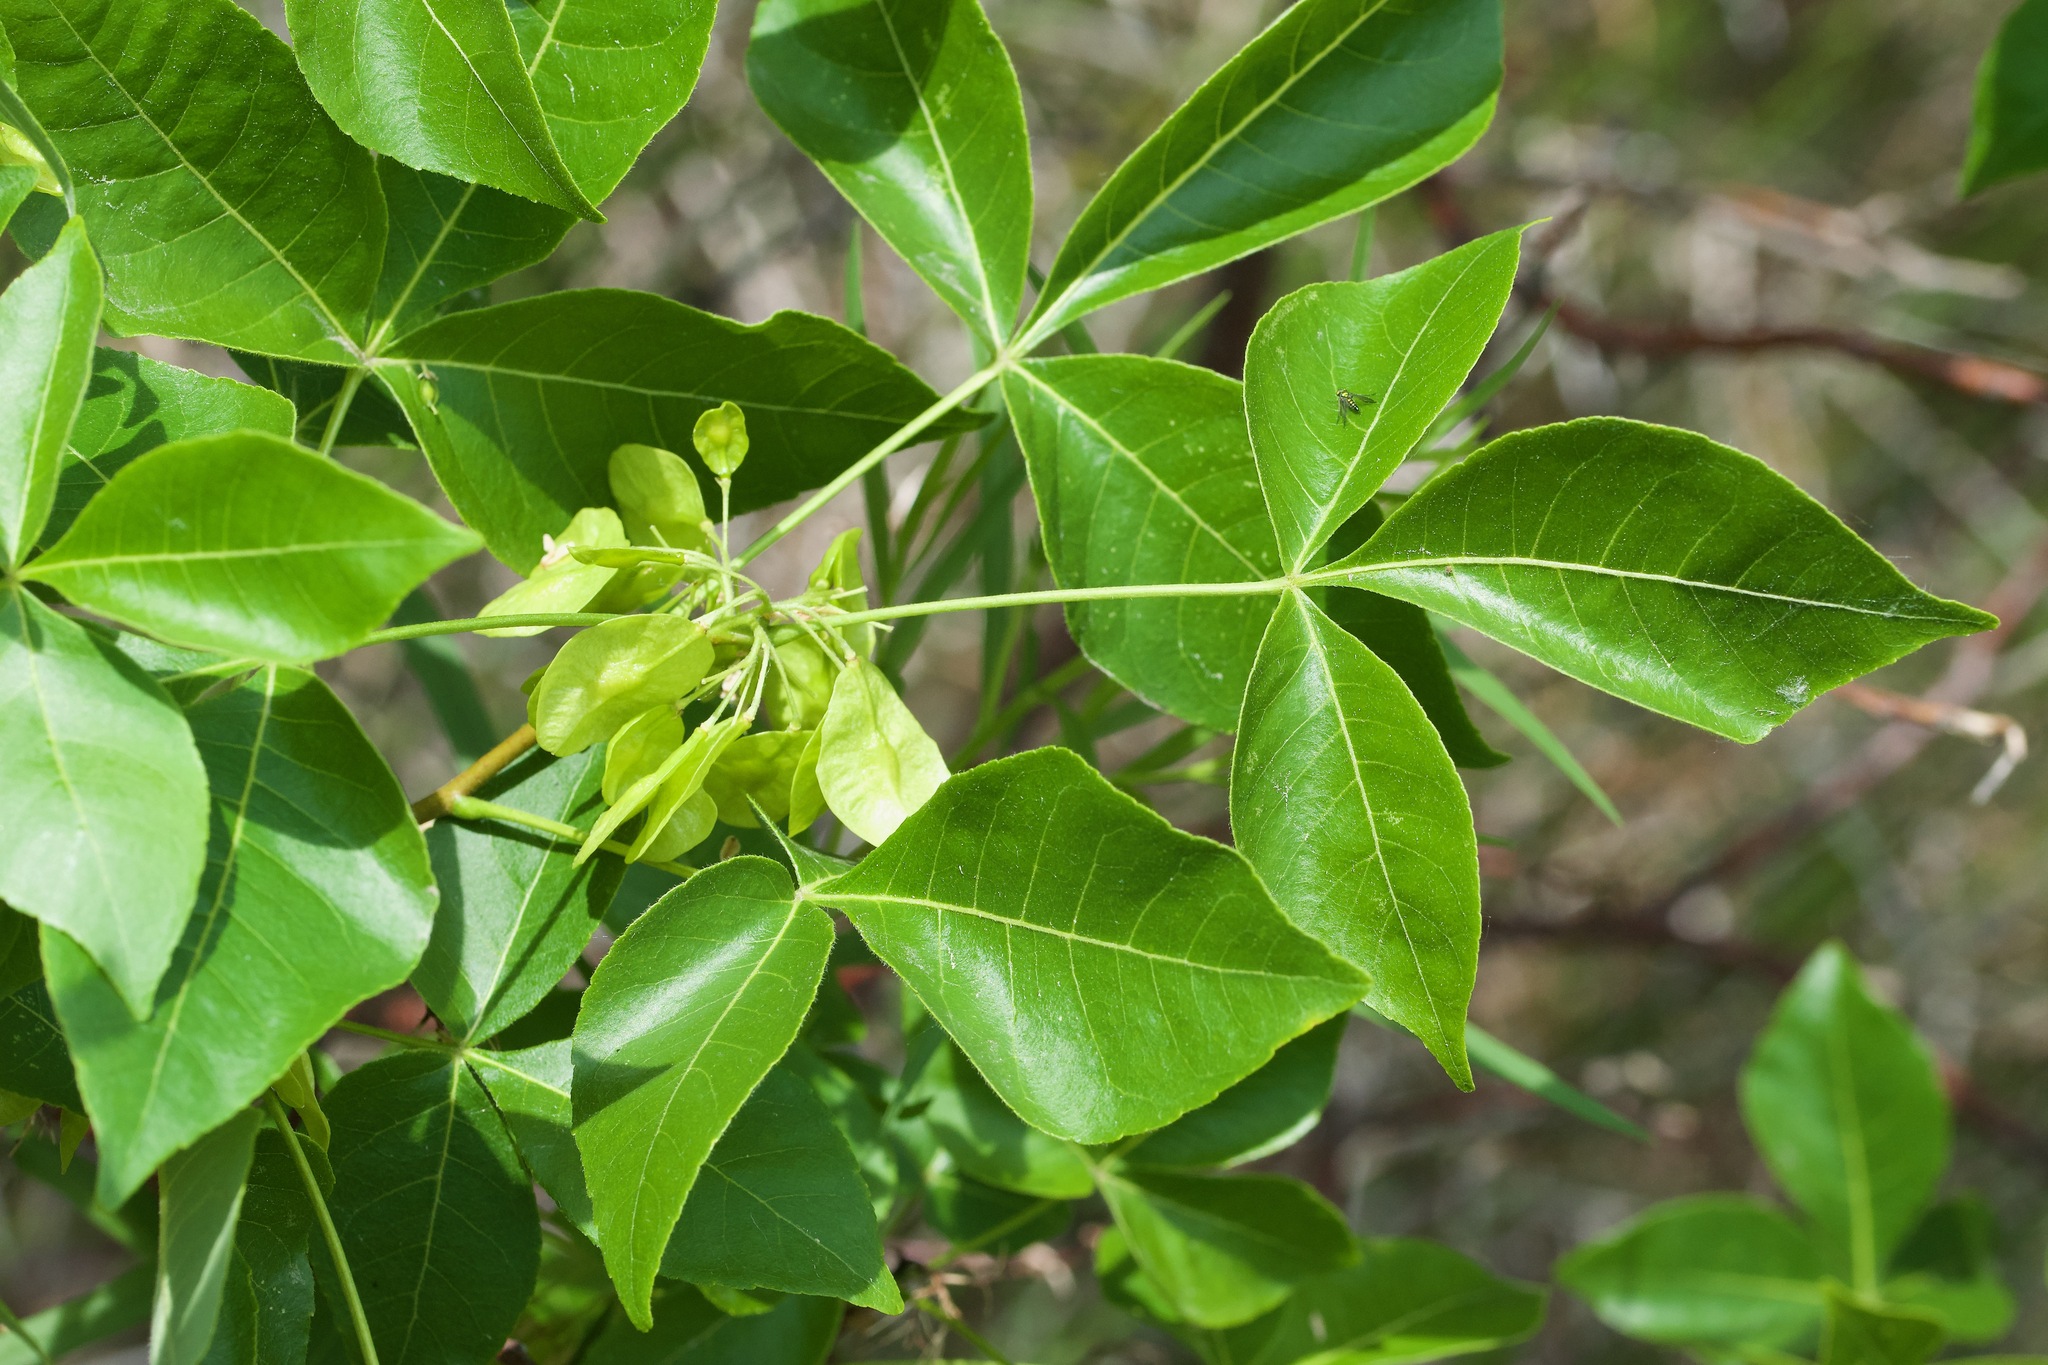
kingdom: Plantae
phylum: Tracheophyta
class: Magnoliopsida
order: Sapindales
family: Rutaceae
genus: Ptelea
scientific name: Ptelea trifoliata
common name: Common hop-tree
